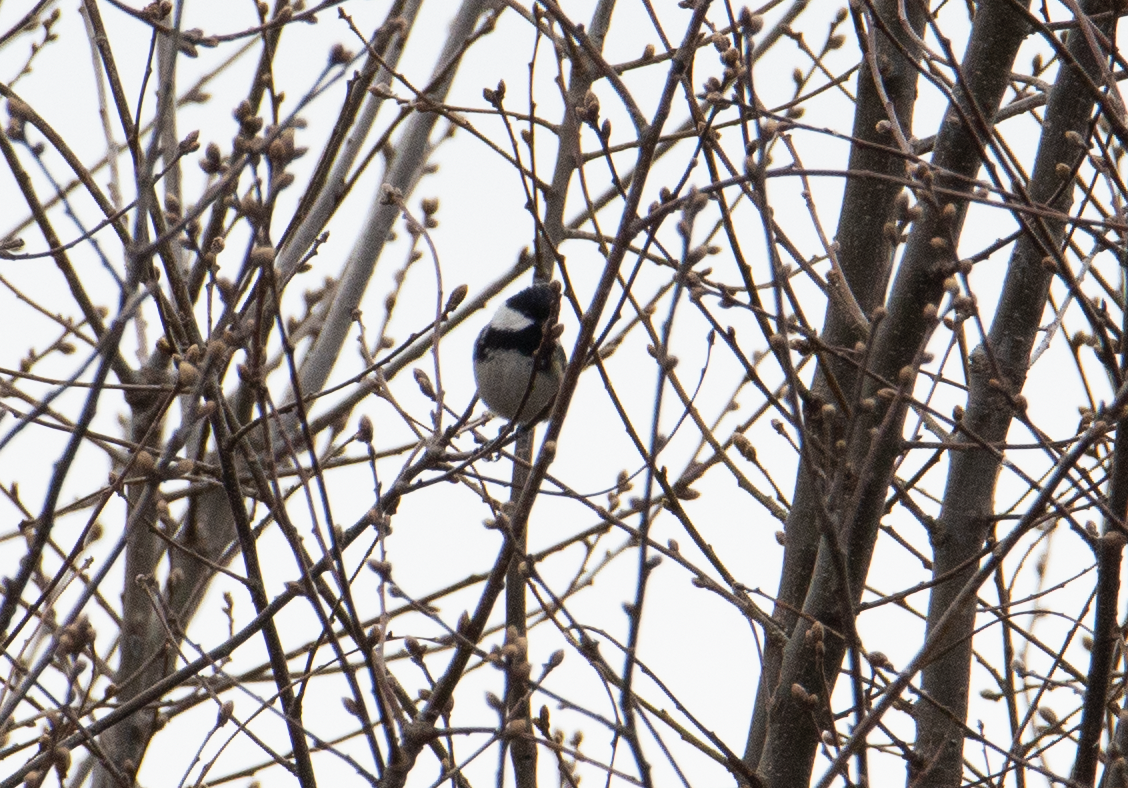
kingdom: Animalia
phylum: Chordata
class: Aves
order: Passeriformes
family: Paridae
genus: Periparus
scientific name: Periparus ater
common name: Coal tit
